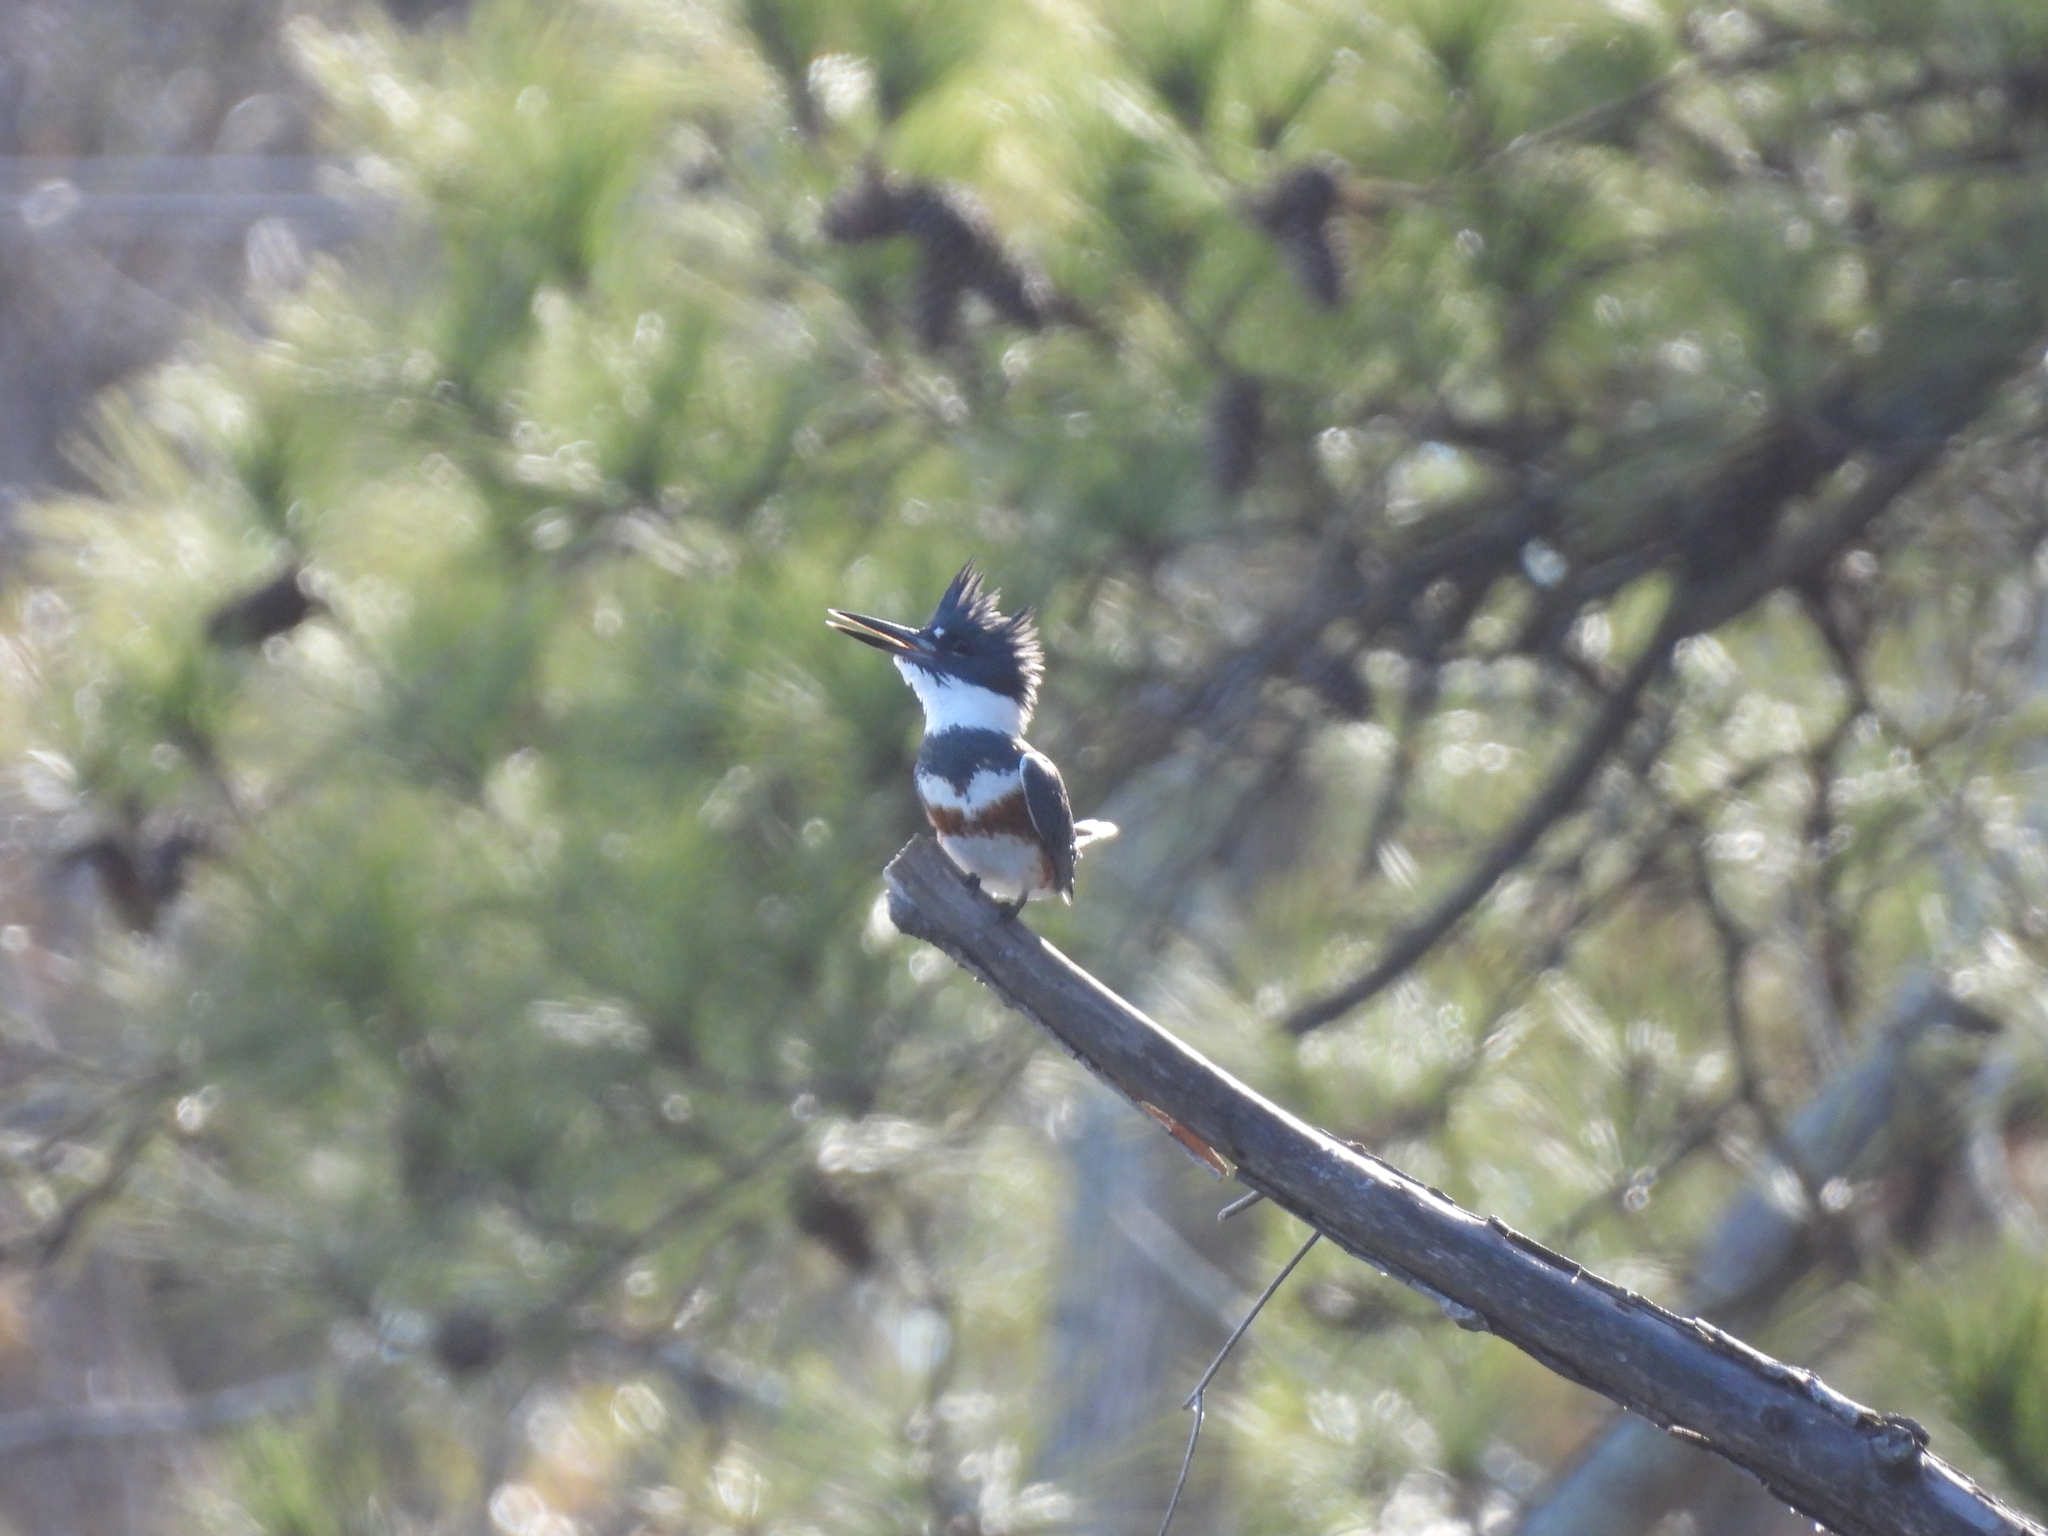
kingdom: Animalia
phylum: Chordata
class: Aves
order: Coraciiformes
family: Alcedinidae
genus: Megaceryle
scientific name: Megaceryle alcyon
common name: Belted kingfisher
